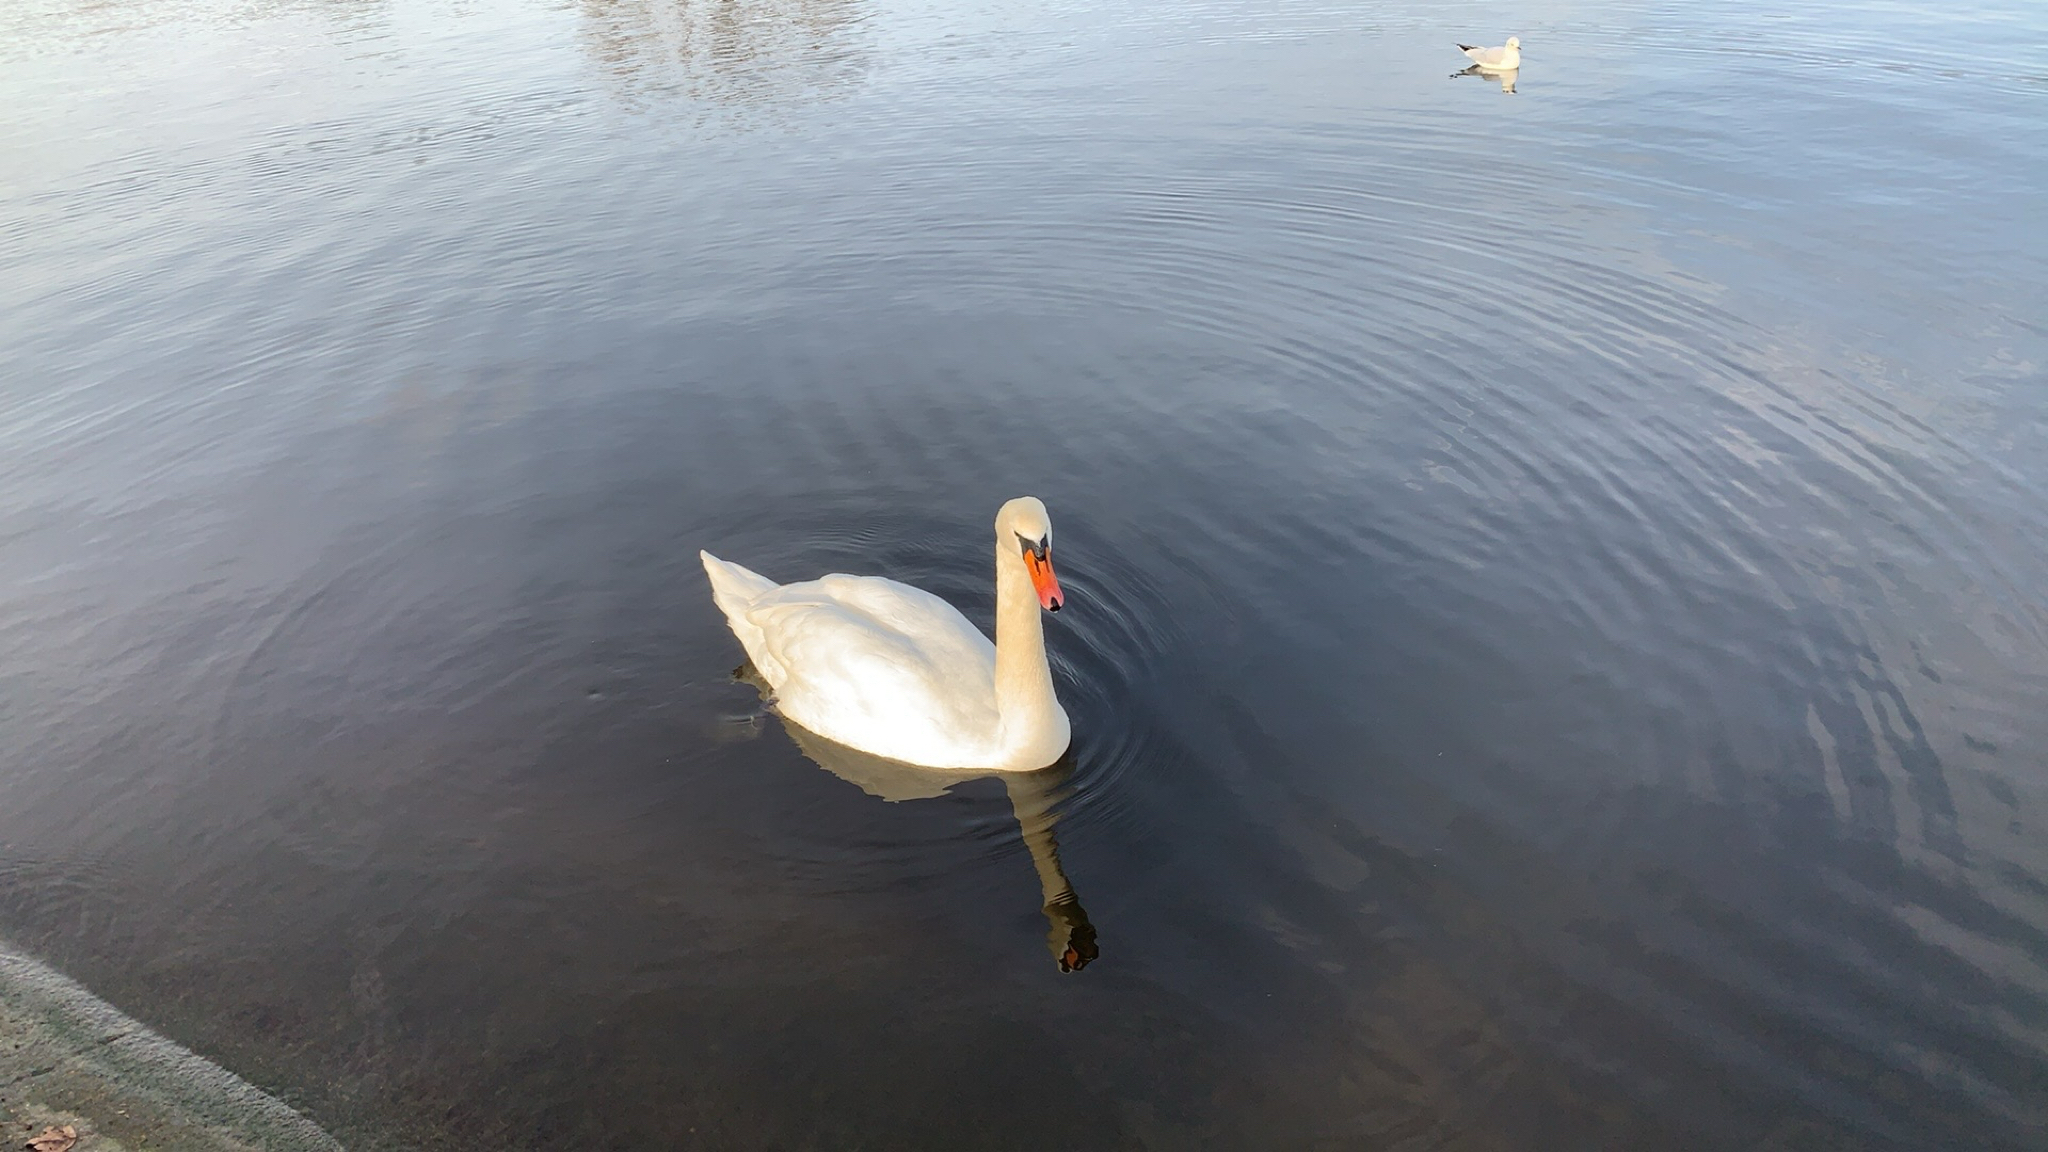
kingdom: Animalia
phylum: Chordata
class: Aves
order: Anseriformes
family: Anatidae
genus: Cygnus
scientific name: Cygnus olor
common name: Mute swan
